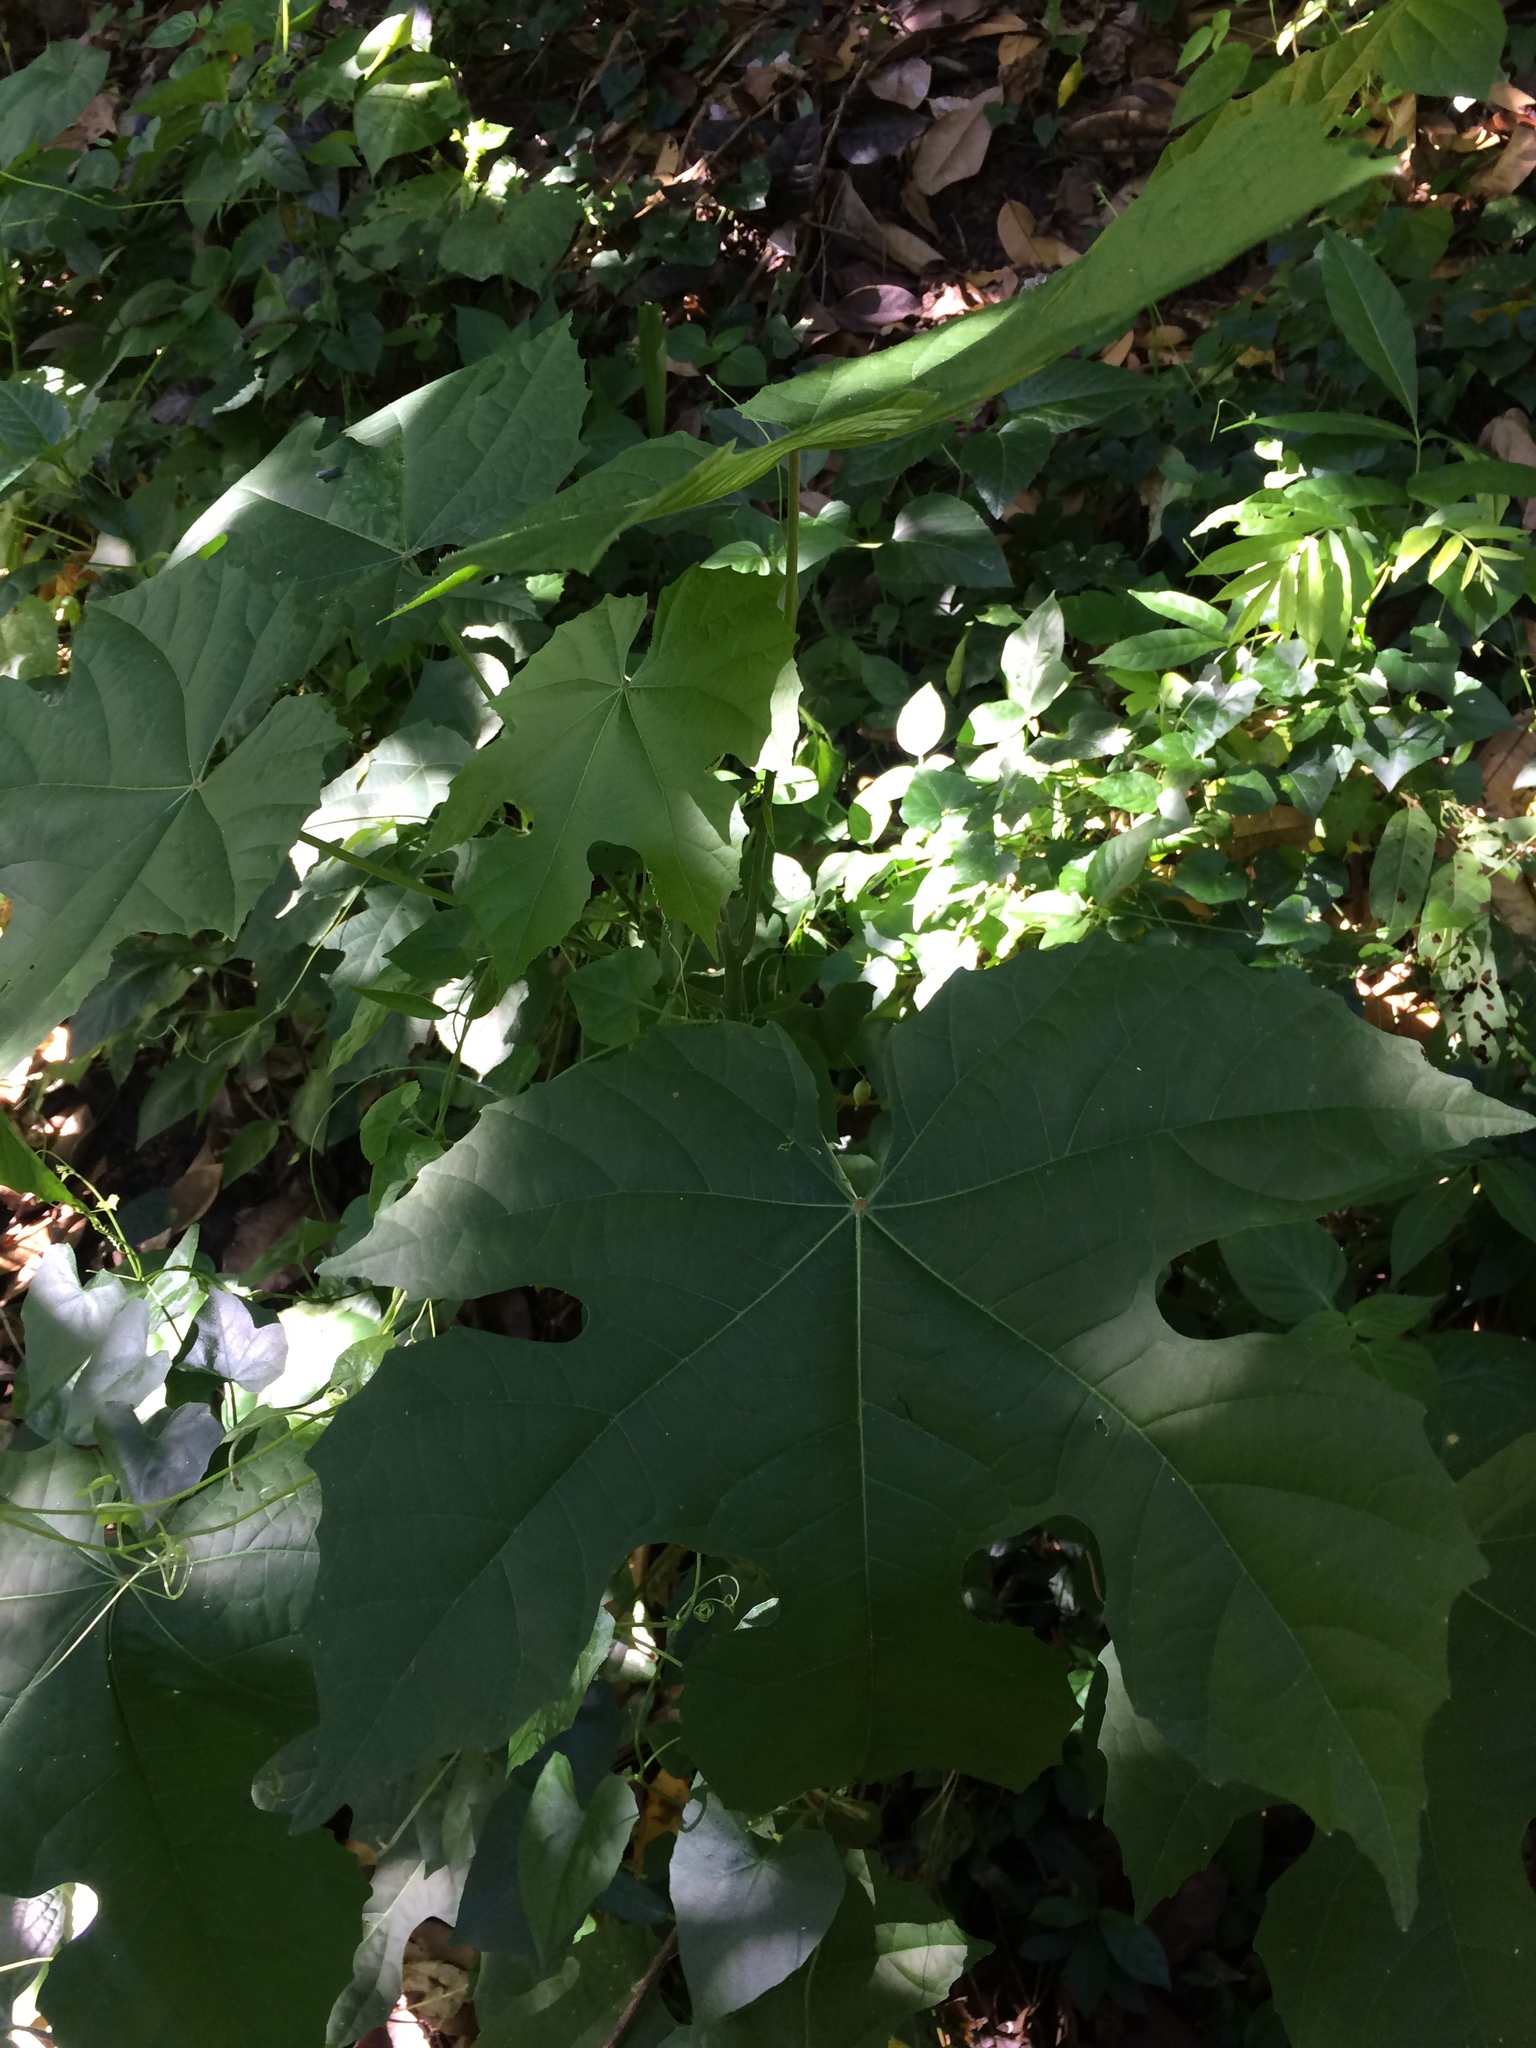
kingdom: Plantae
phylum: Tracheophyta
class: Magnoliopsida
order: Malpighiales
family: Euphorbiaceae
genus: Melanolepis
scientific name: Melanolepis multiglandulosa
